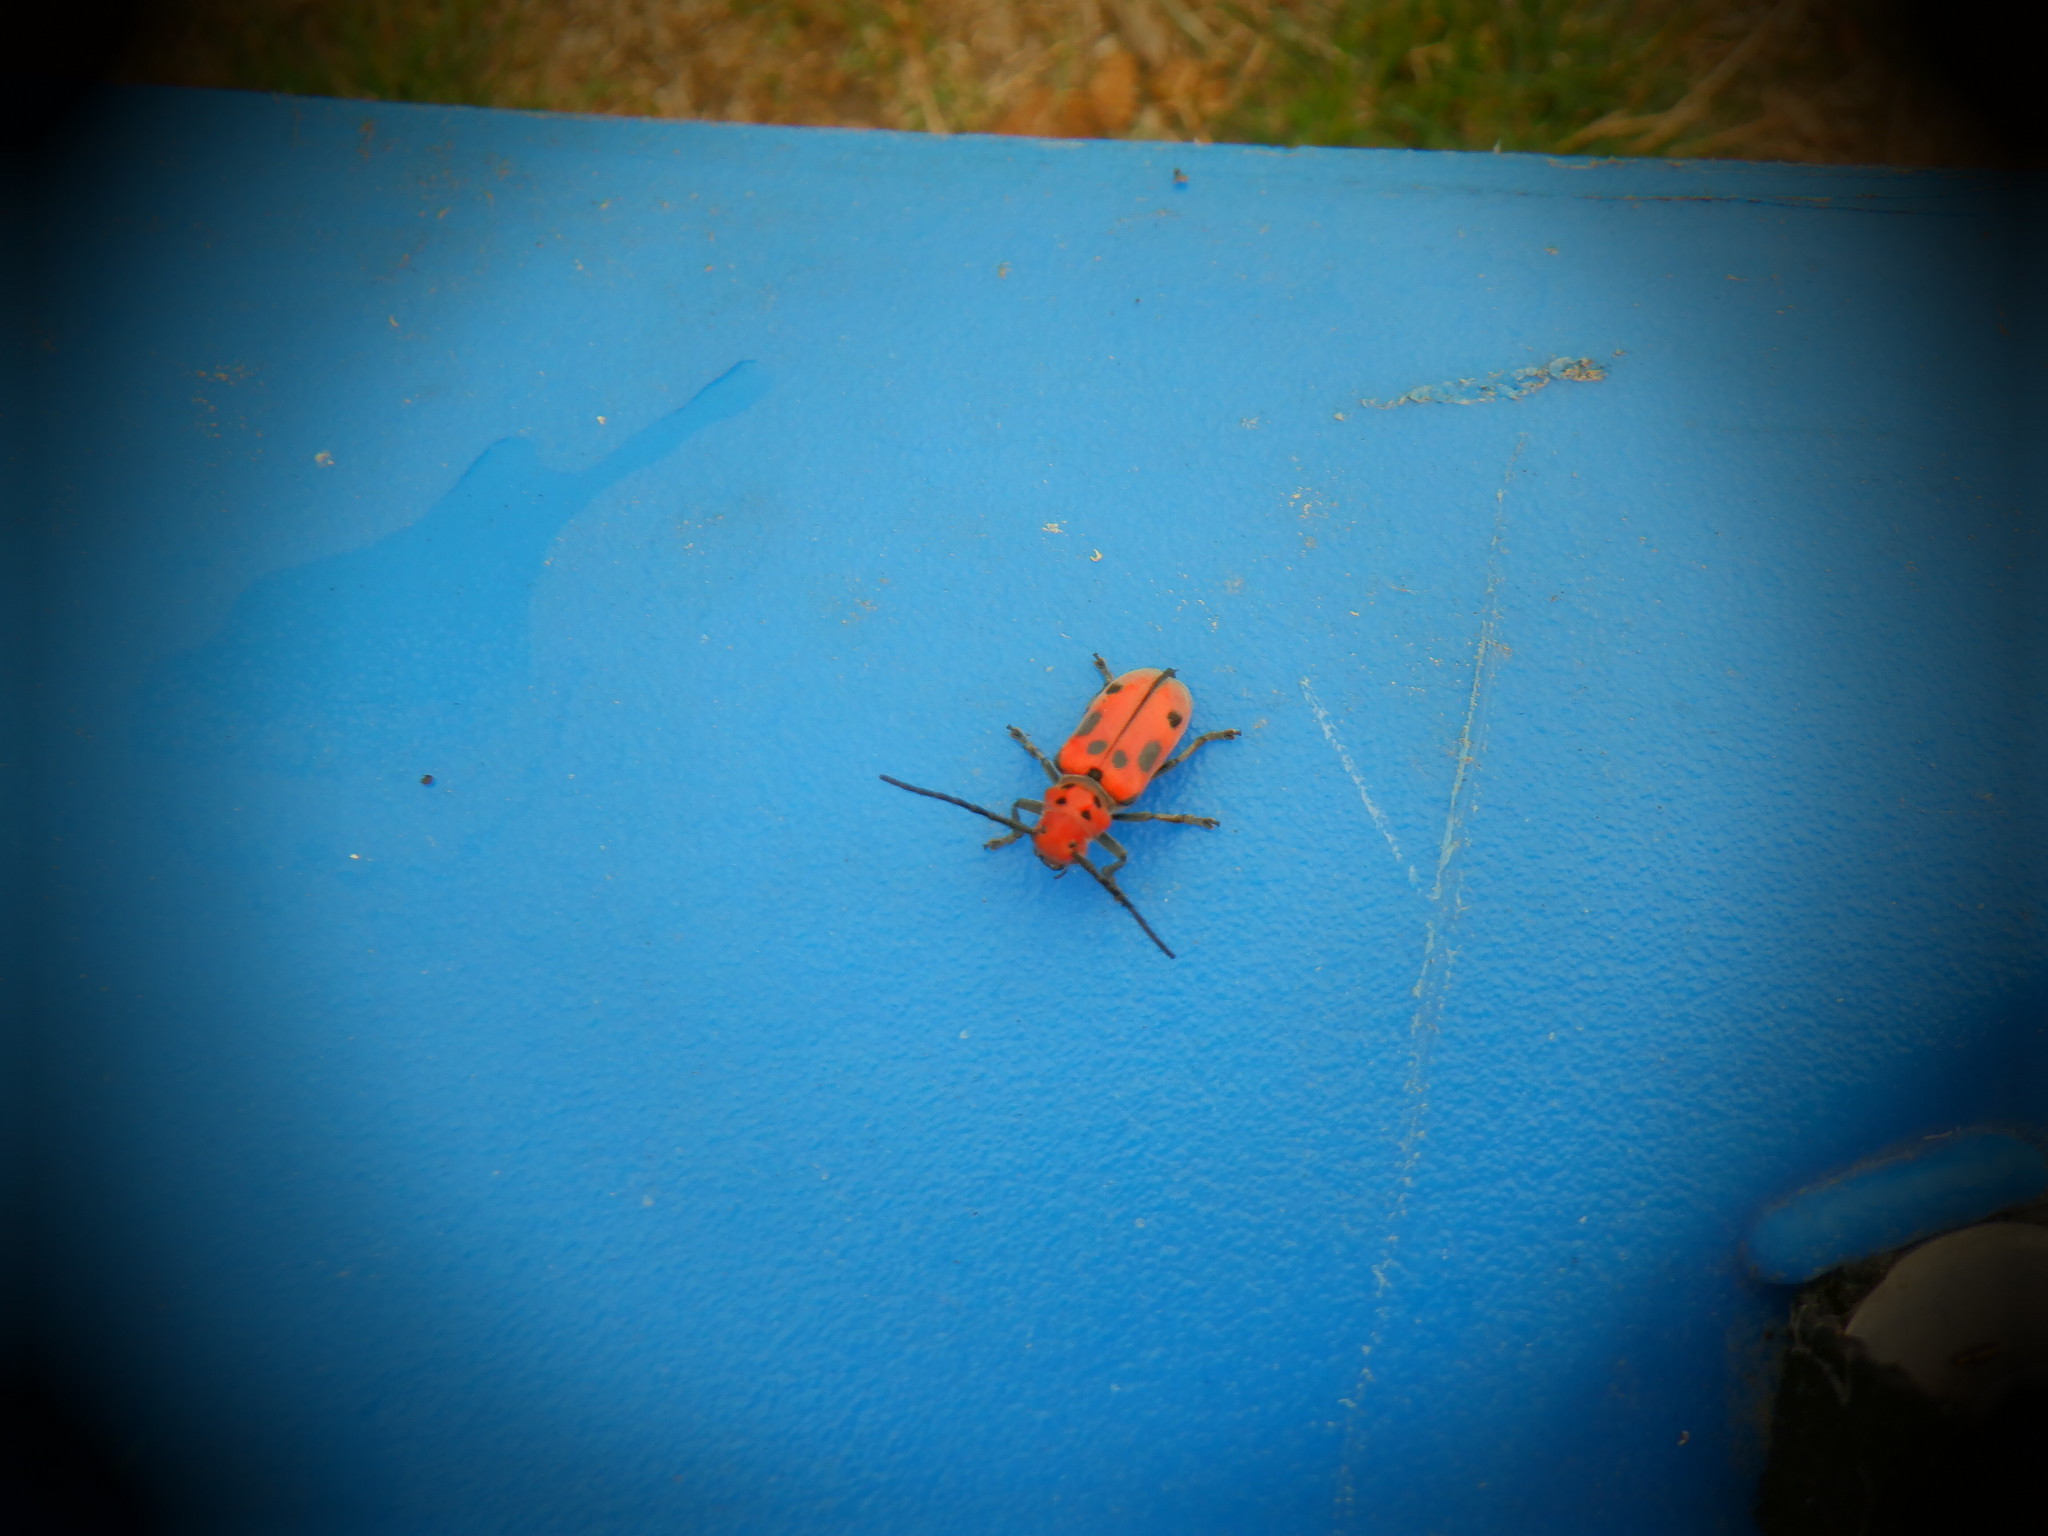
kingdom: Animalia
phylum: Arthropoda
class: Insecta
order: Coleoptera
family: Cerambycidae
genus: Tetraopes
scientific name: Tetraopes tetrophthalmus
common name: Red milkweed beetle
